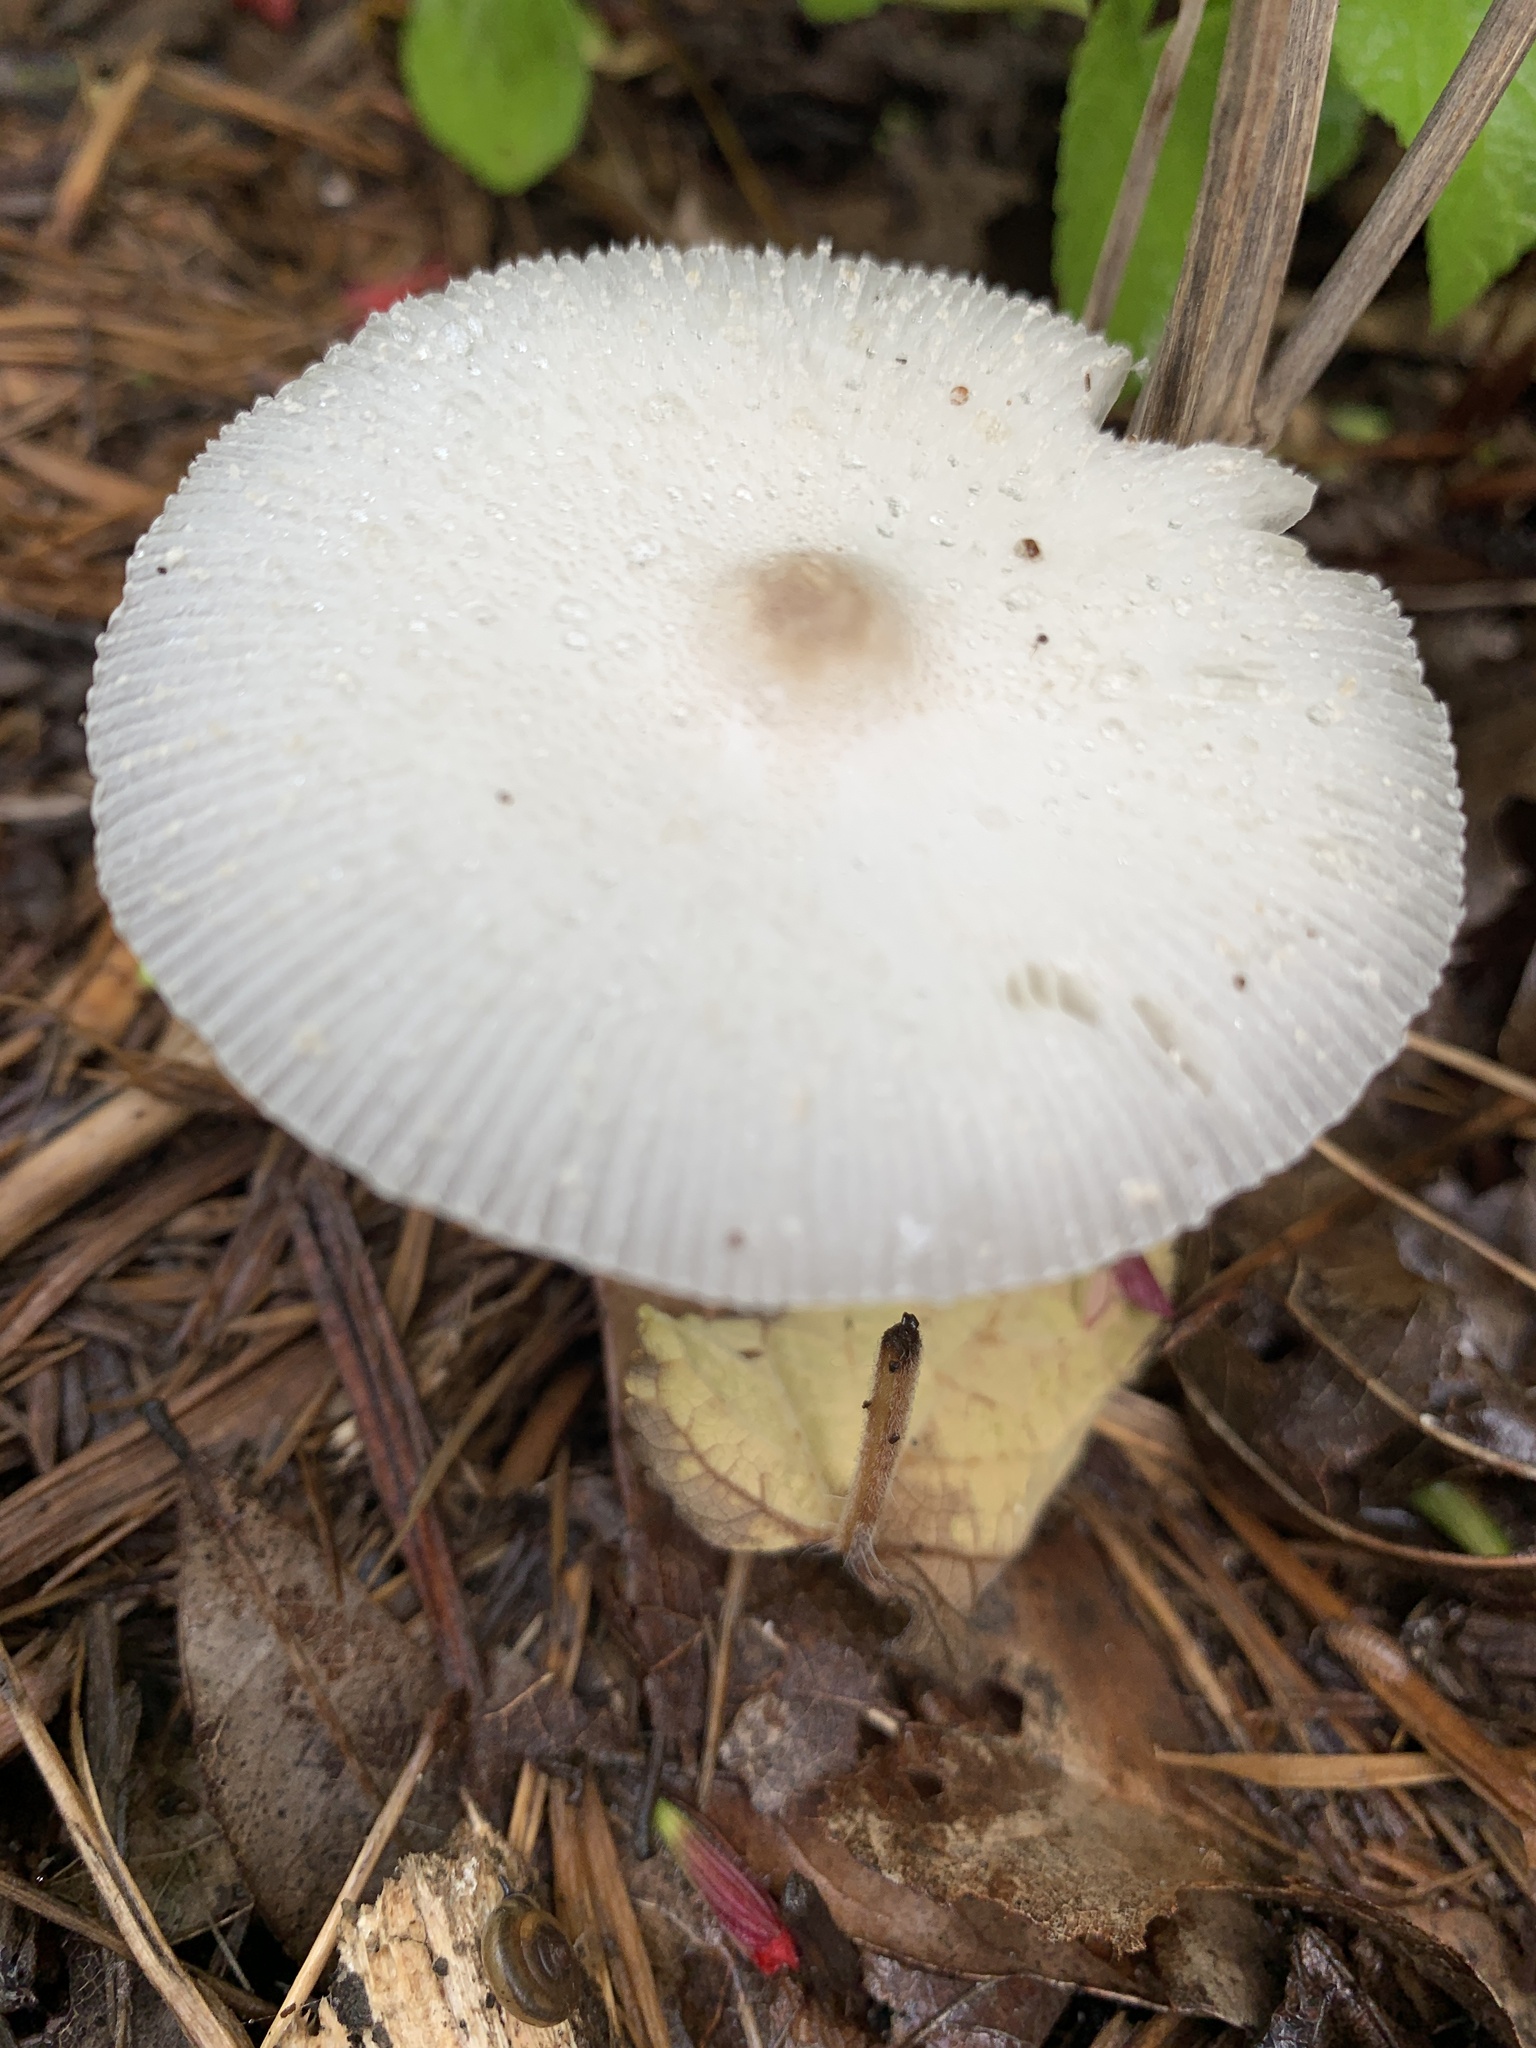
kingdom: Fungi
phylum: Basidiomycota
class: Agaricomycetes
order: Agaricales
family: Agaricaceae
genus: Leucocoprinus
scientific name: Leucocoprinus cepistipes
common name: Onion-stalk parasol
